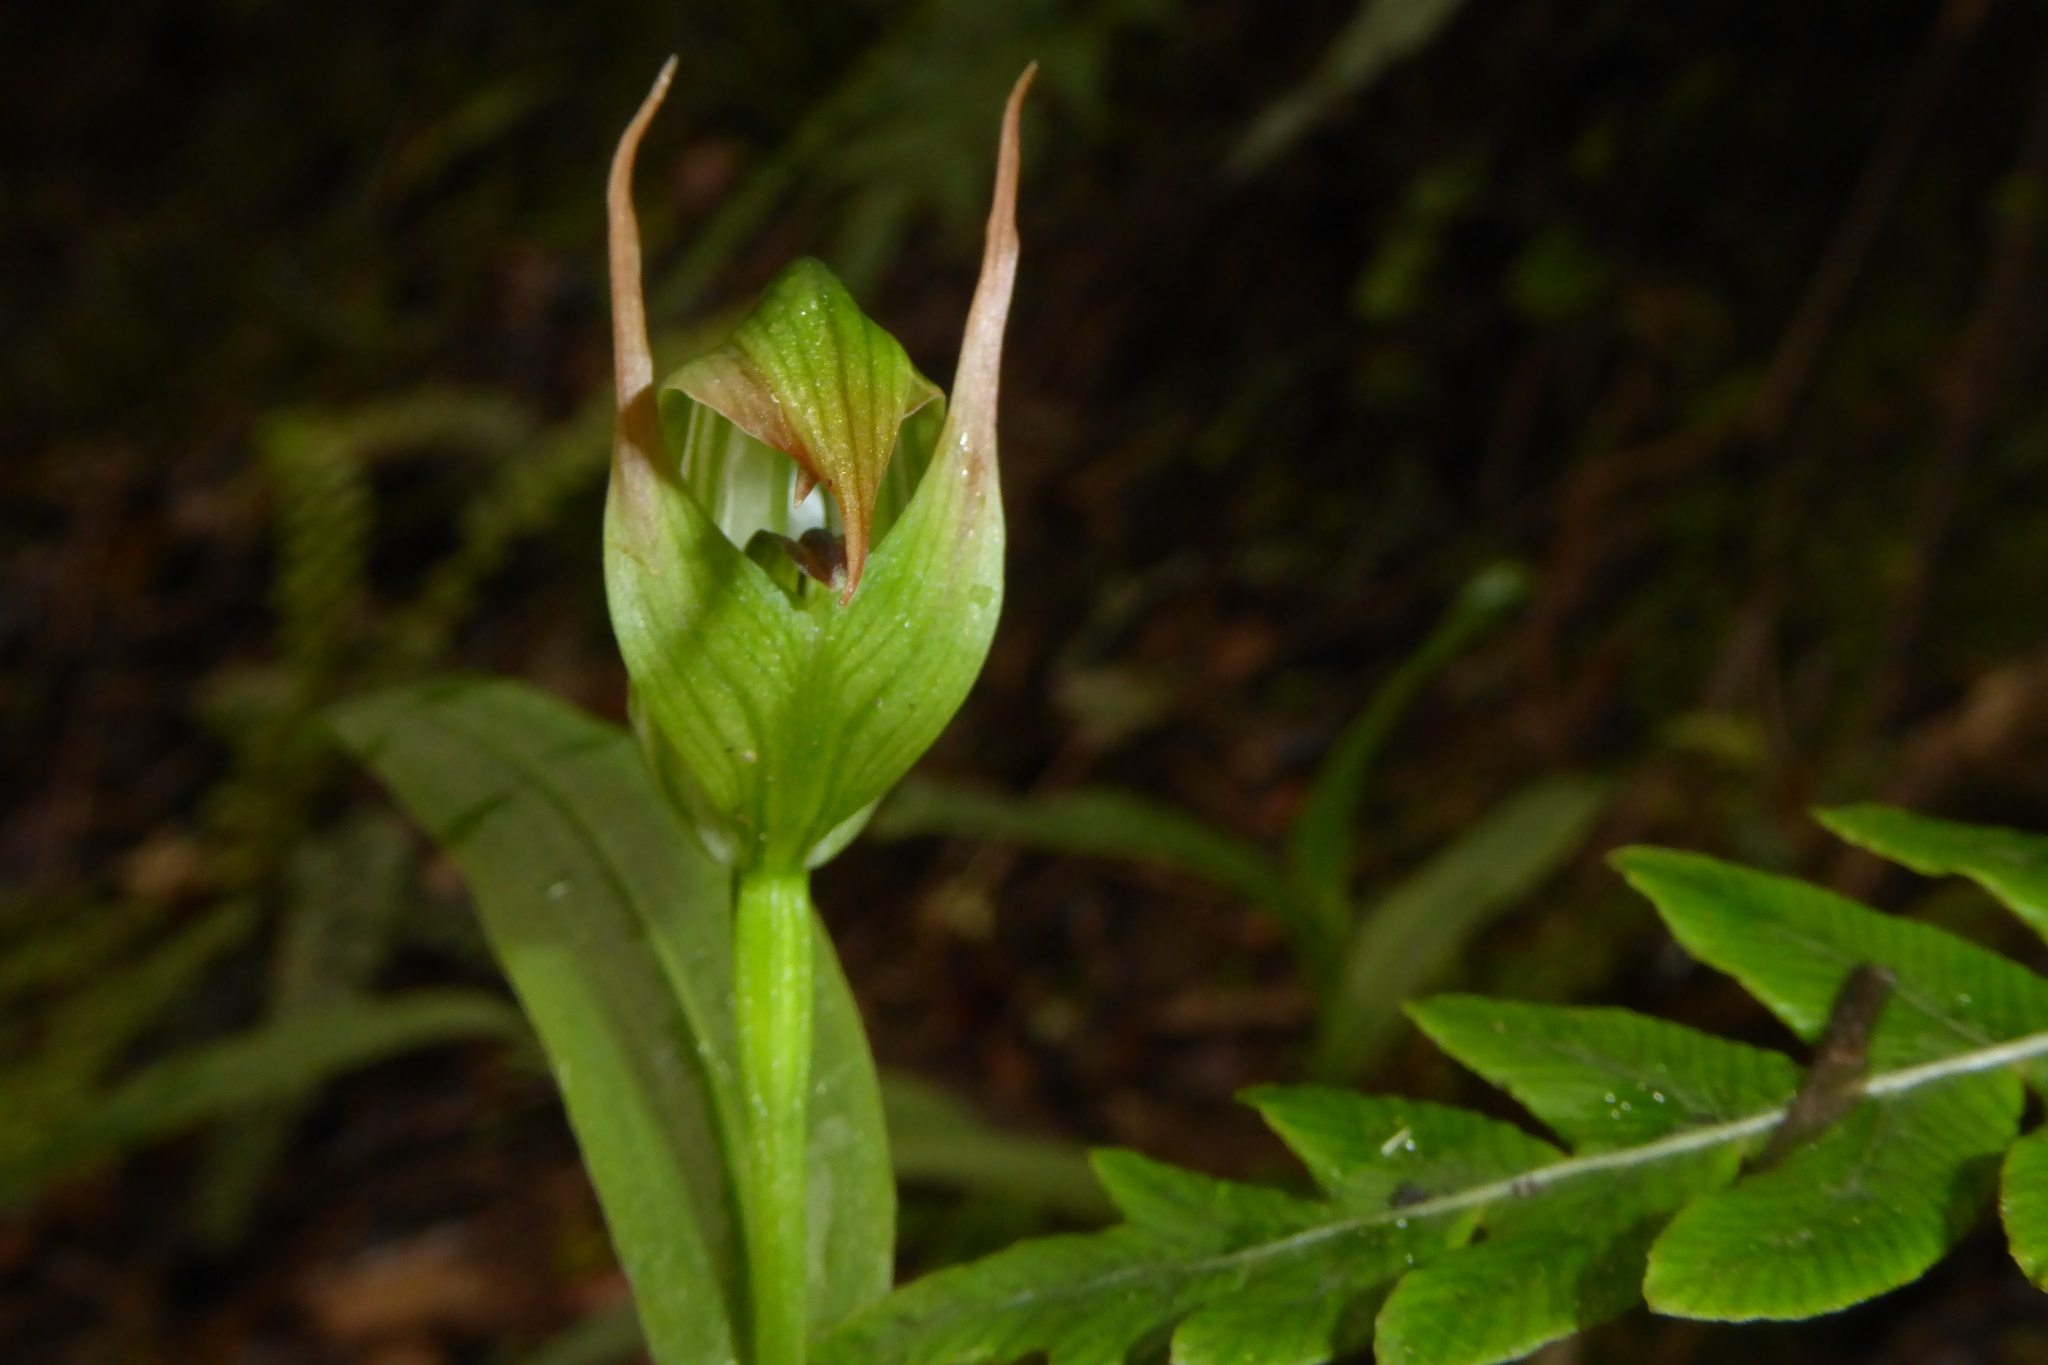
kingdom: Plantae
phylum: Tracheophyta
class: Liliopsida
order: Asparagales
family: Orchidaceae
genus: Pterostylis
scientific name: Pterostylis australis
